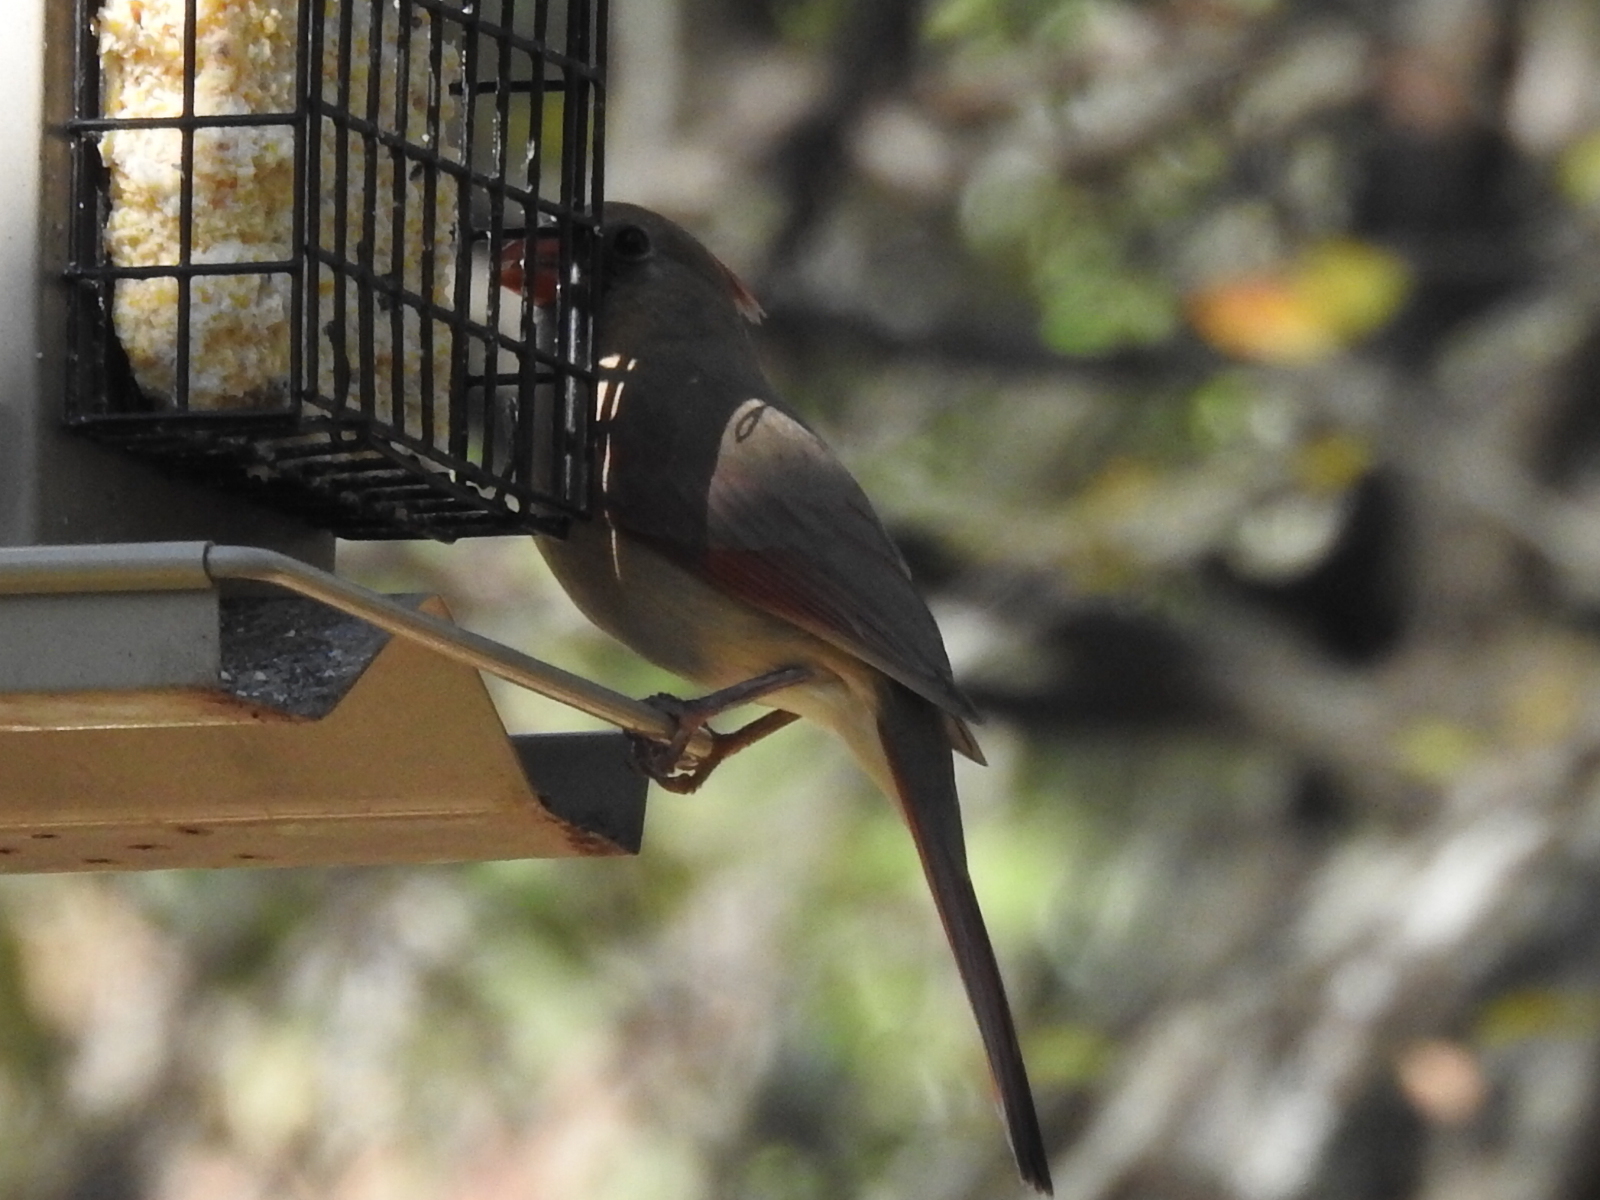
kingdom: Animalia
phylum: Chordata
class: Aves
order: Passeriformes
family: Cardinalidae
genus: Cardinalis
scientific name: Cardinalis cardinalis
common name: Northern cardinal
